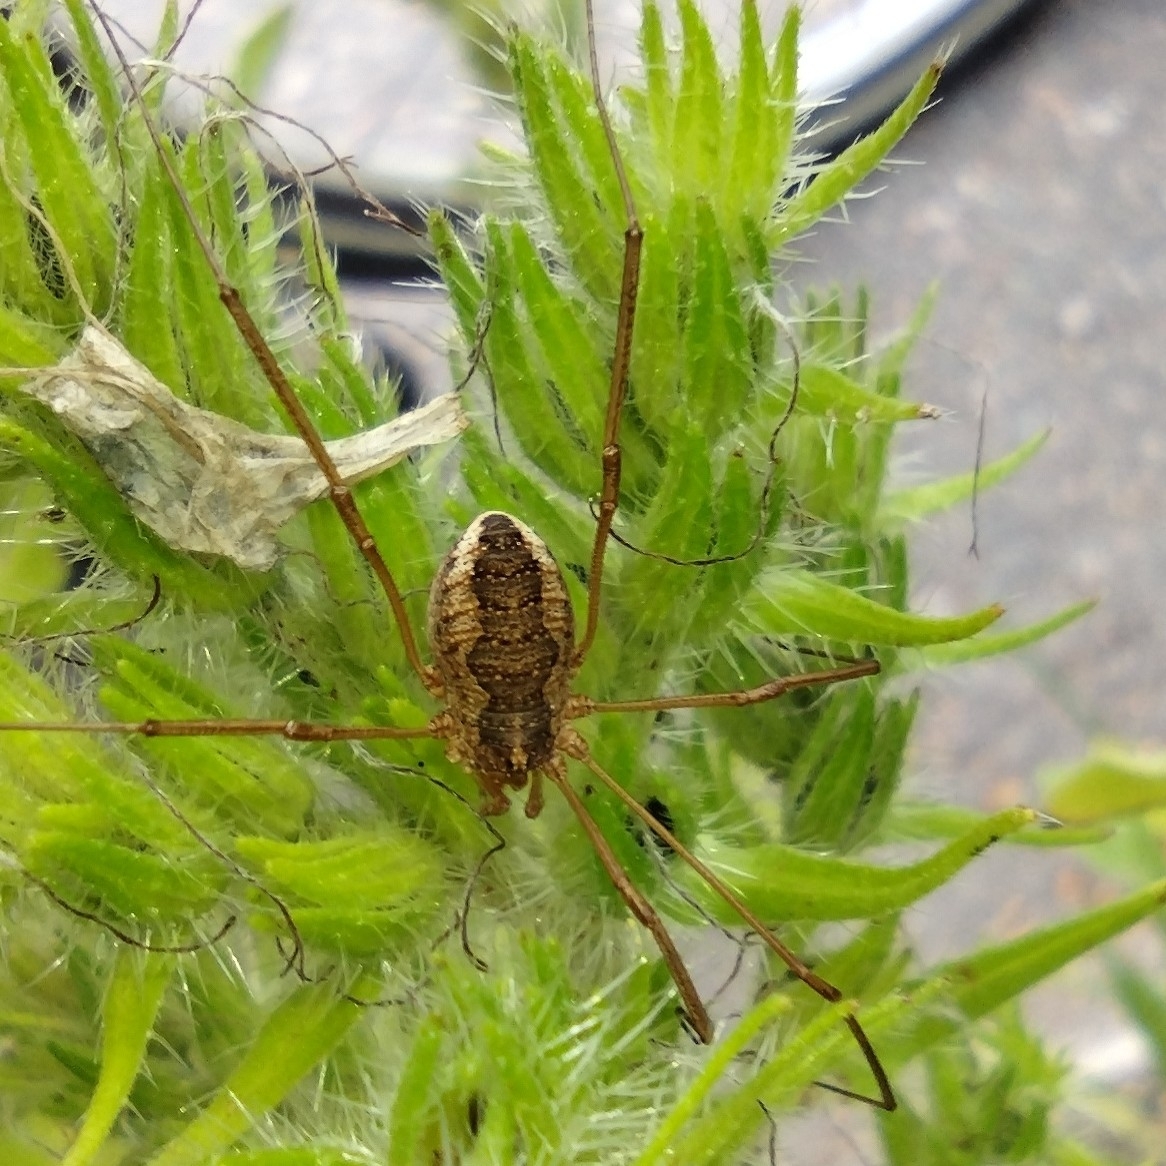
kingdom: Animalia
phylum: Arthropoda
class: Arachnida
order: Opiliones
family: Phalangiidae
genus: Phalangium
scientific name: Phalangium opilio
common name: Daddy longleg
